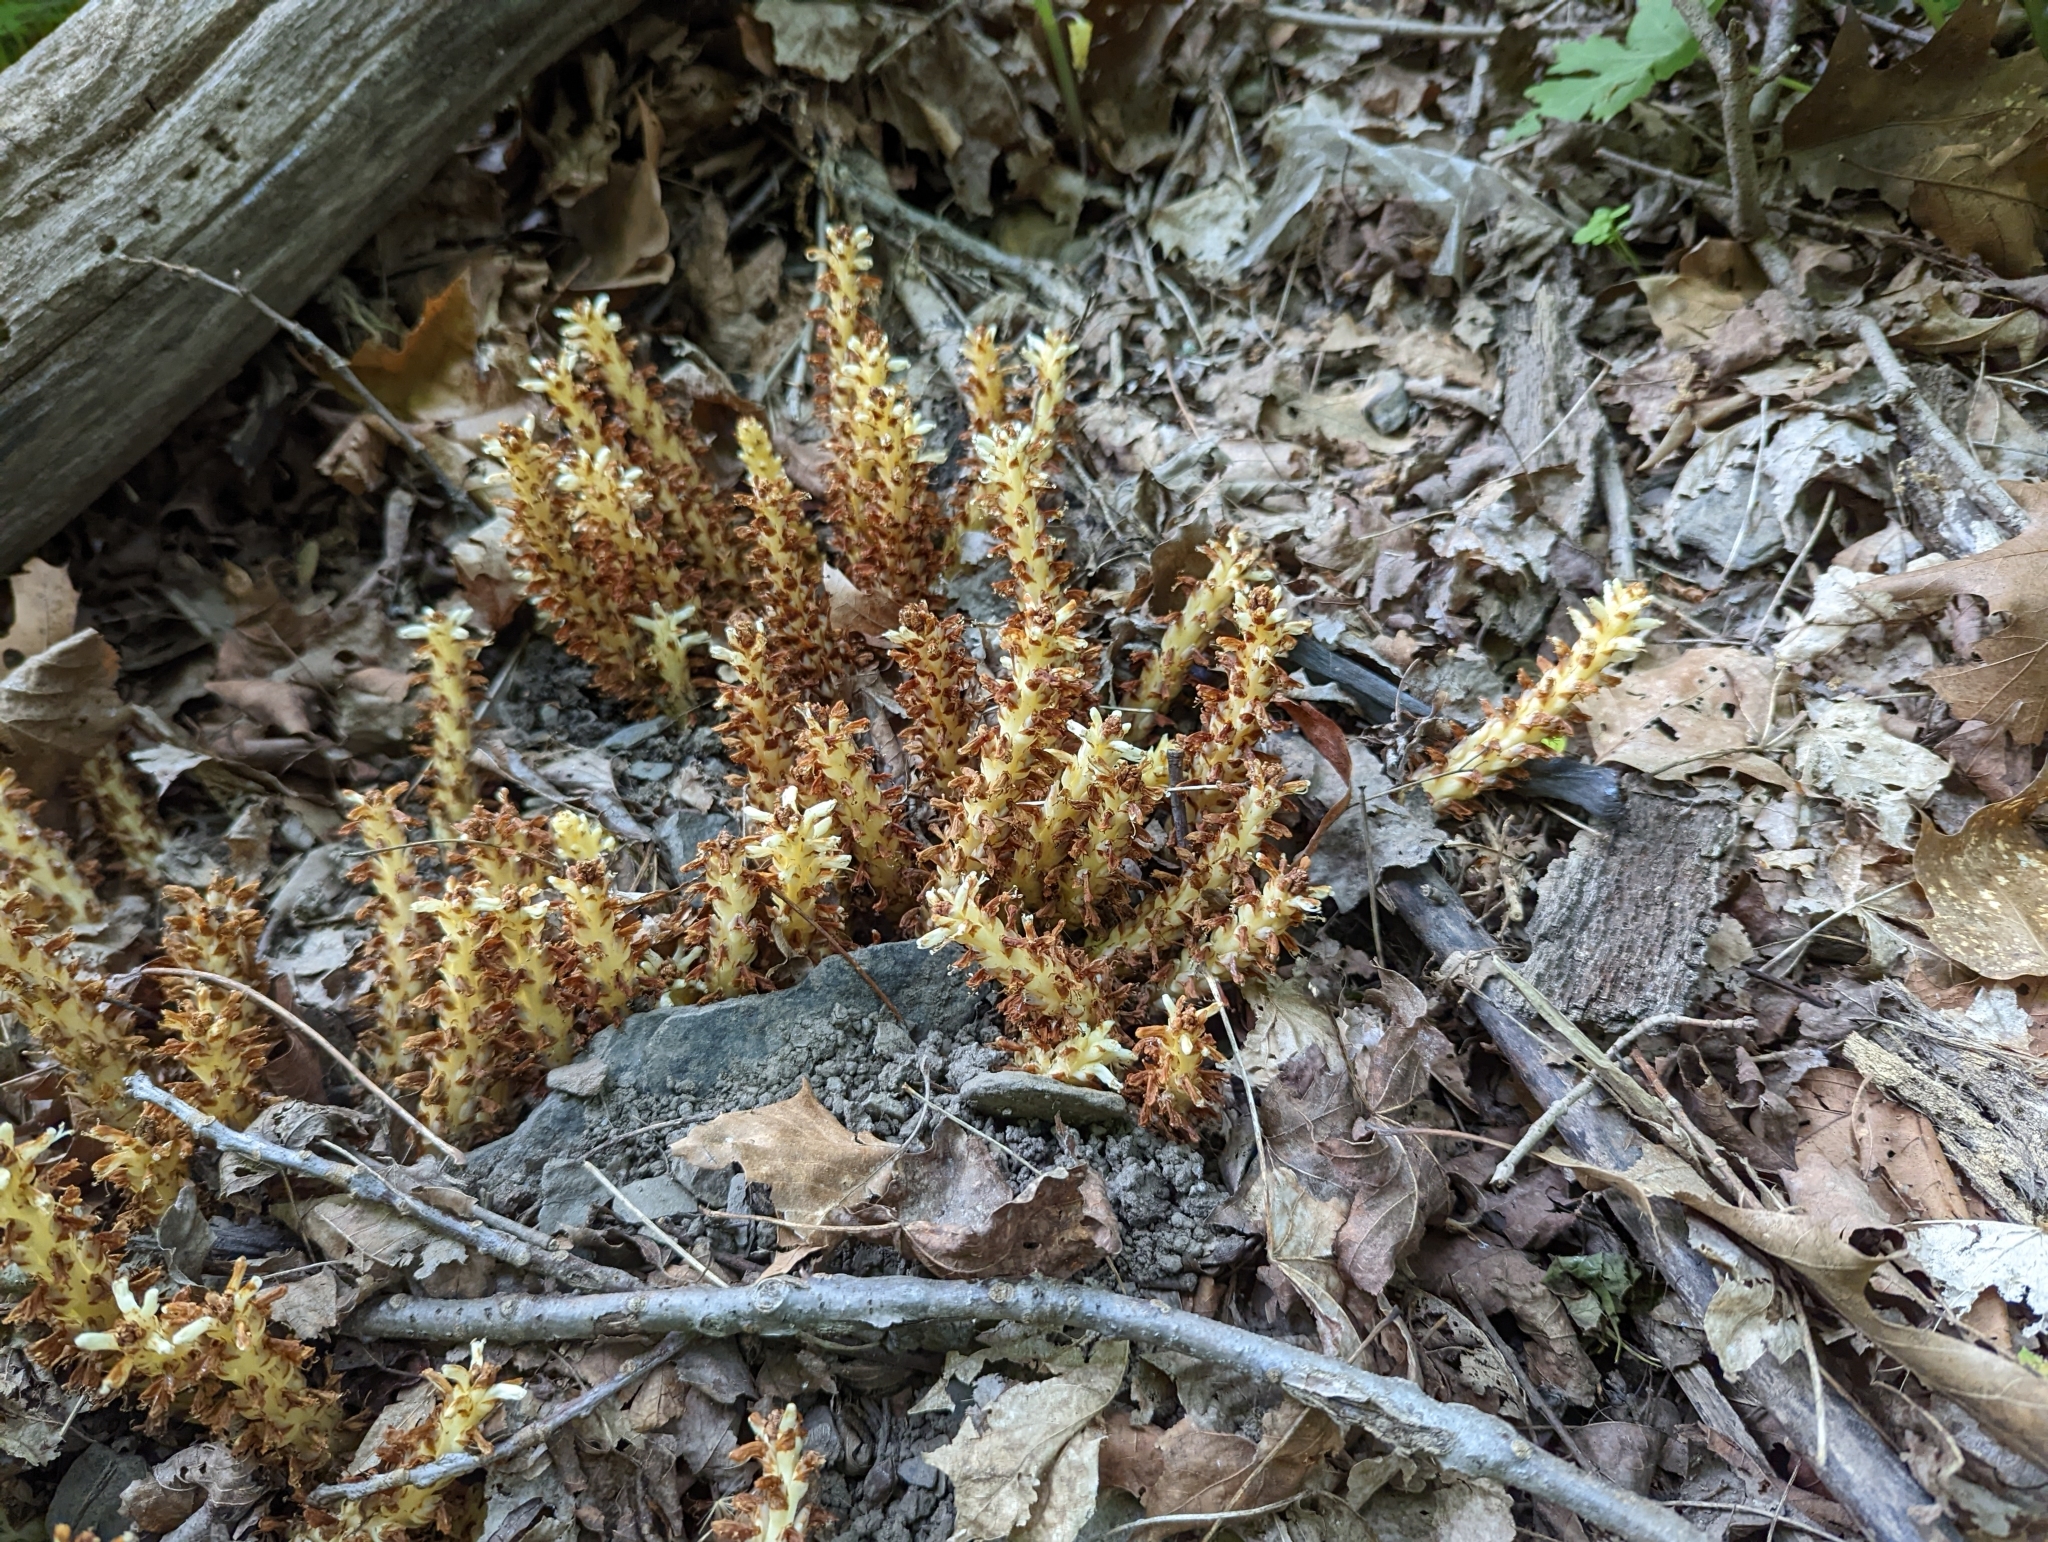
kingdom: Plantae
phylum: Tracheophyta
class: Magnoliopsida
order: Lamiales
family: Orobanchaceae
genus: Conopholis
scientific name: Conopholis americana
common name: American cancer-root
